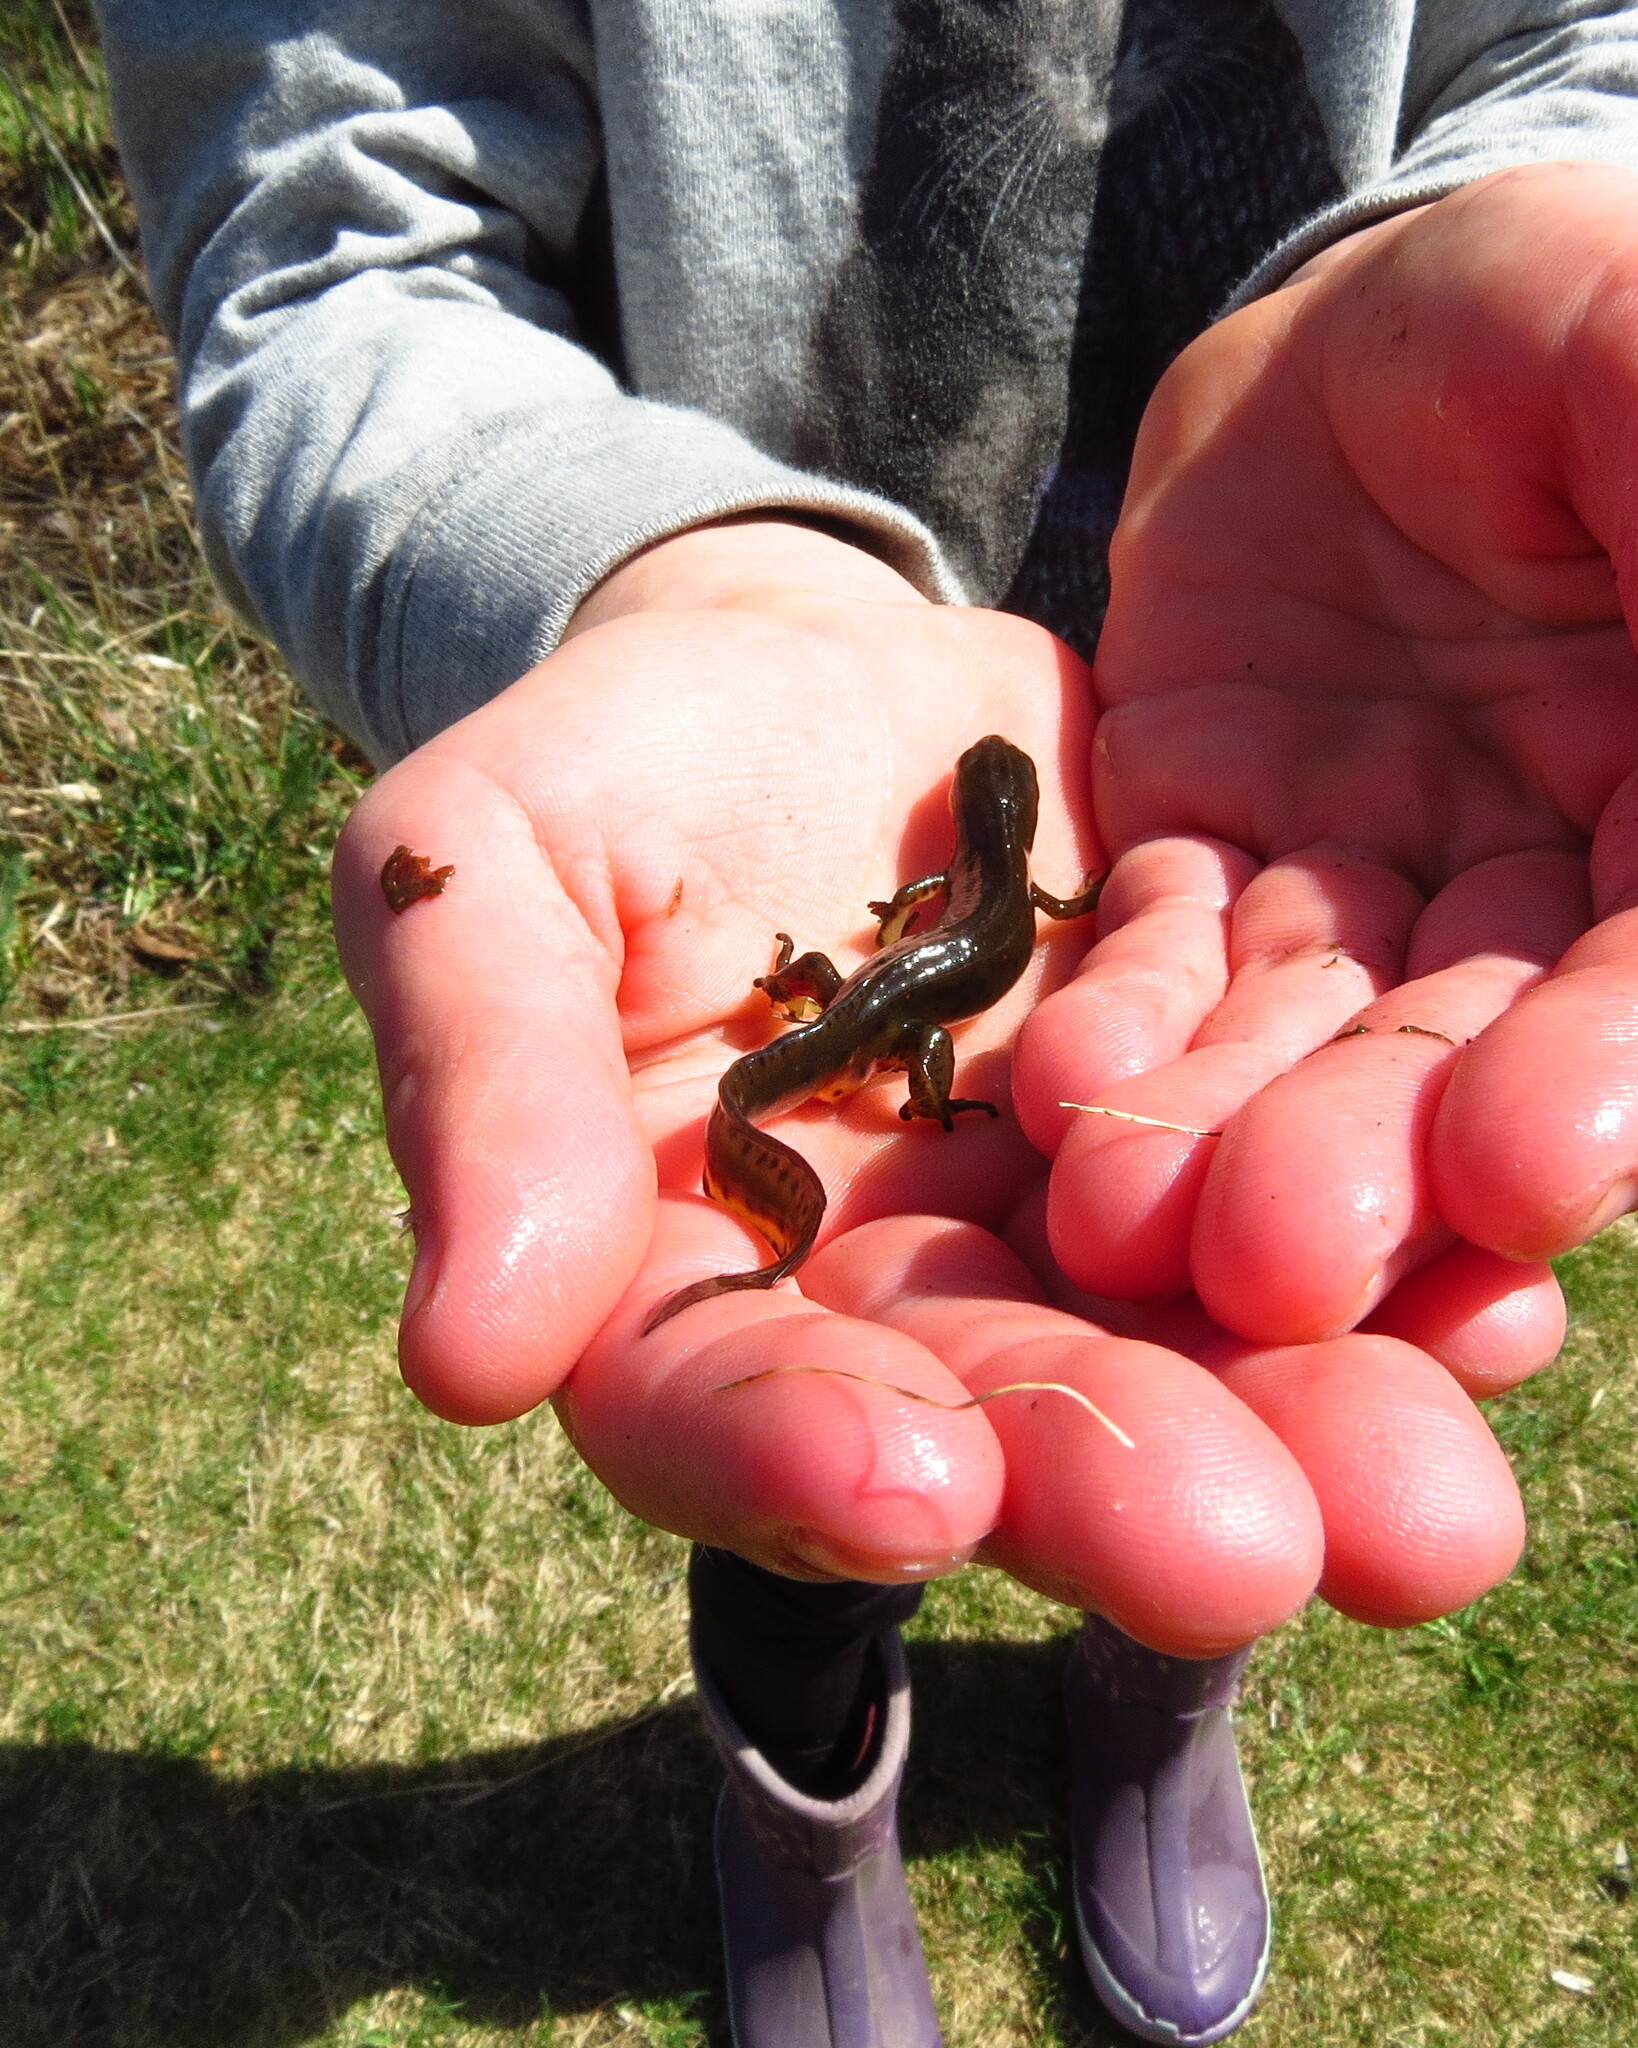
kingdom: Animalia
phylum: Chordata
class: Amphibia
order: Caudata
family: Salamandridae
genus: Notophthalmus
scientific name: Notophthalmus viridescens
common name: Eastern newt
